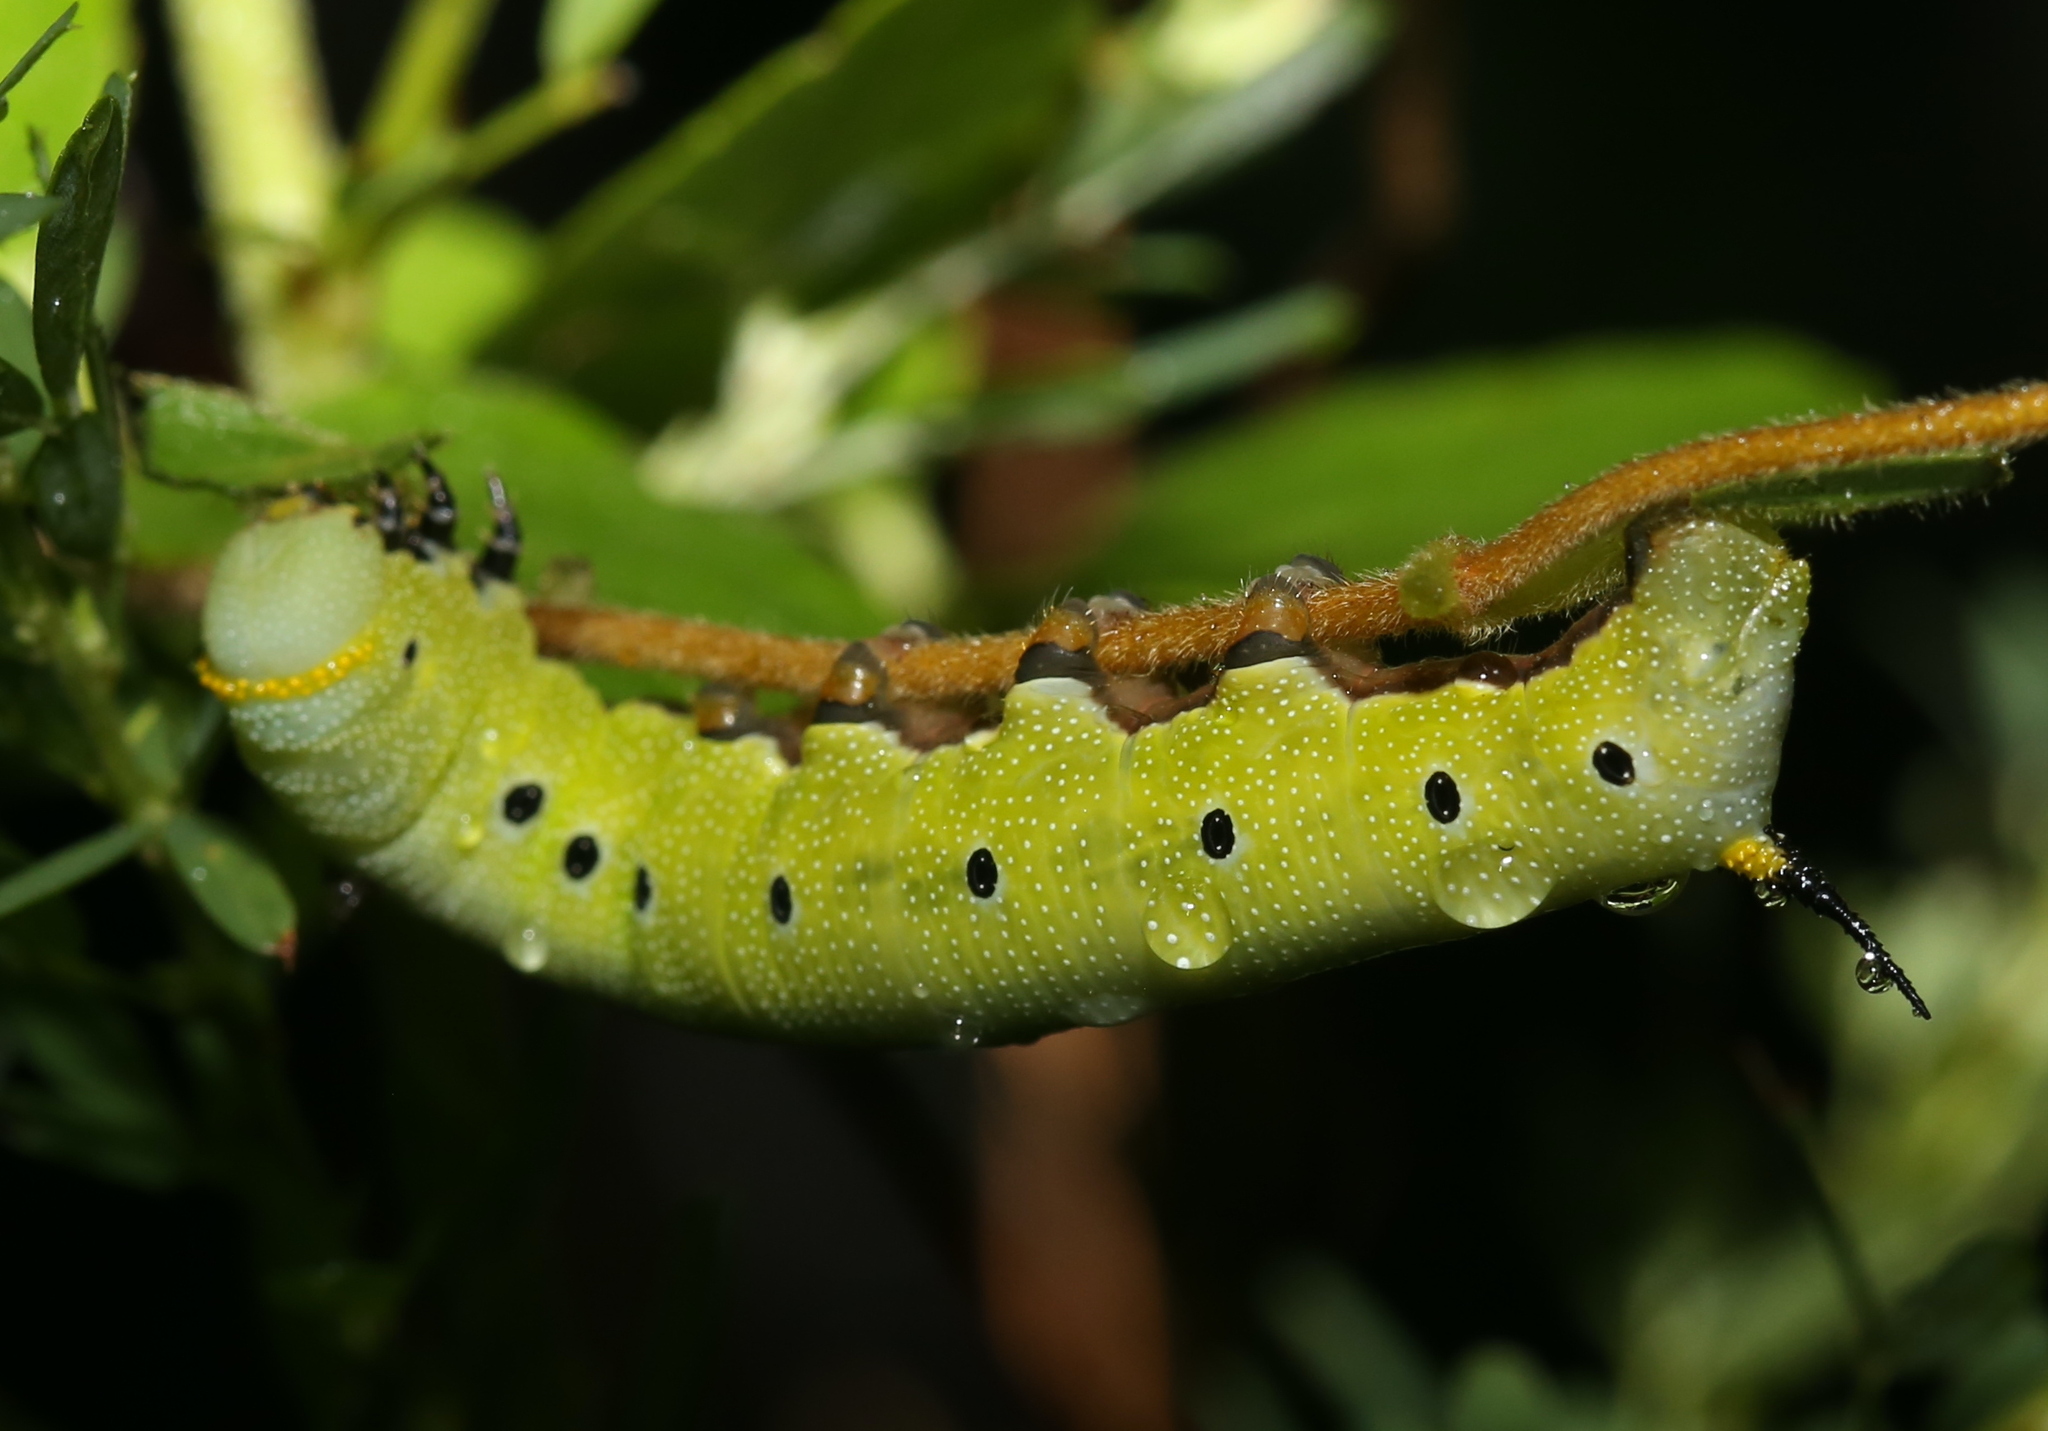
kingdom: Animalia
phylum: Arthropoda
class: Insecta
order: Lepidoptera
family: Sphingidae
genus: Hemaris
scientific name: Hemaris diffinis
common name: Bumblebee moth
